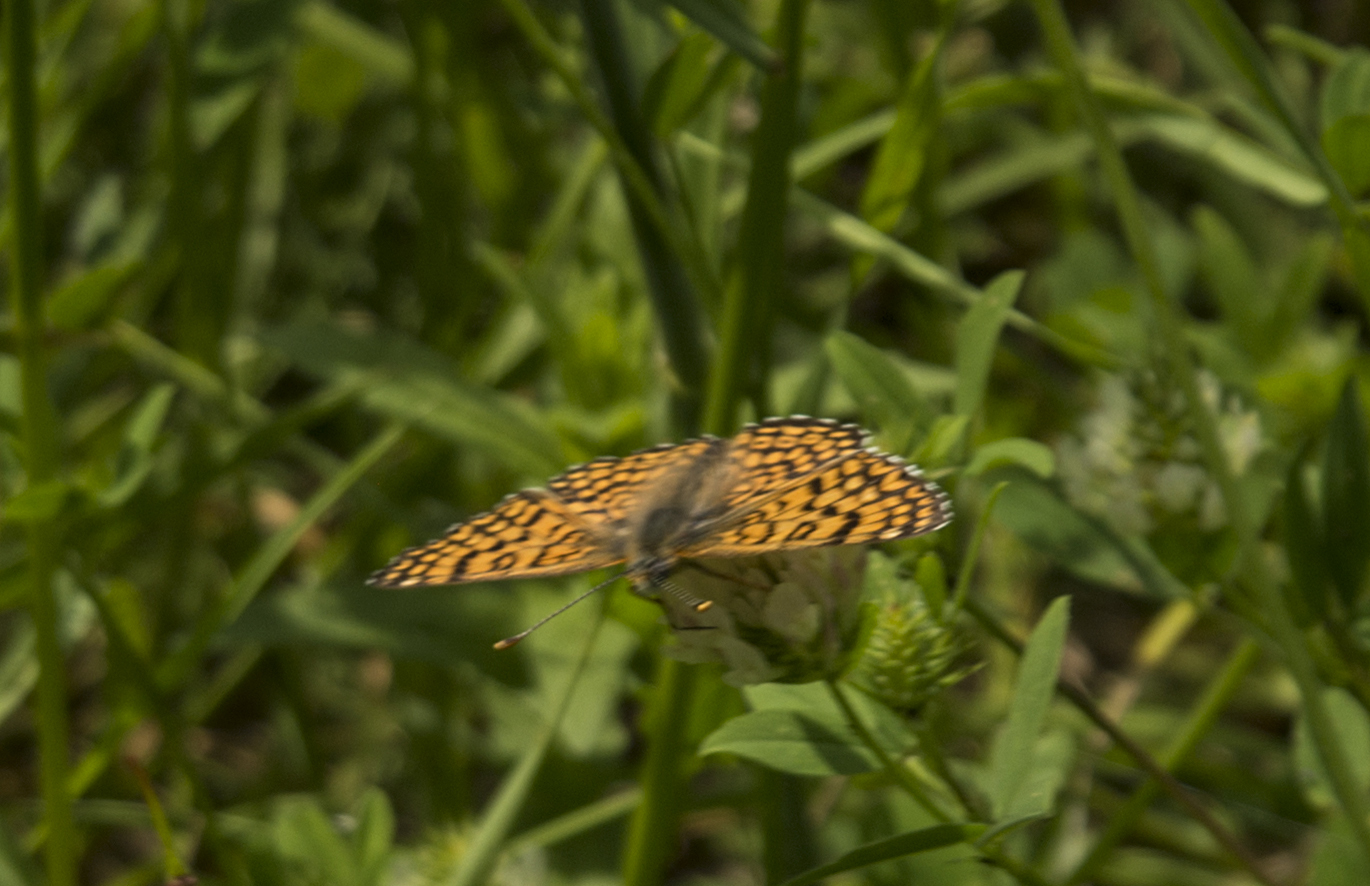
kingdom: Animalia
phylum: Arthropoda
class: Insecta
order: Lepidoptera
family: Nymphalidae
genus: Melitaea
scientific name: Melitaea cinxia
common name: Glanville fritillary
